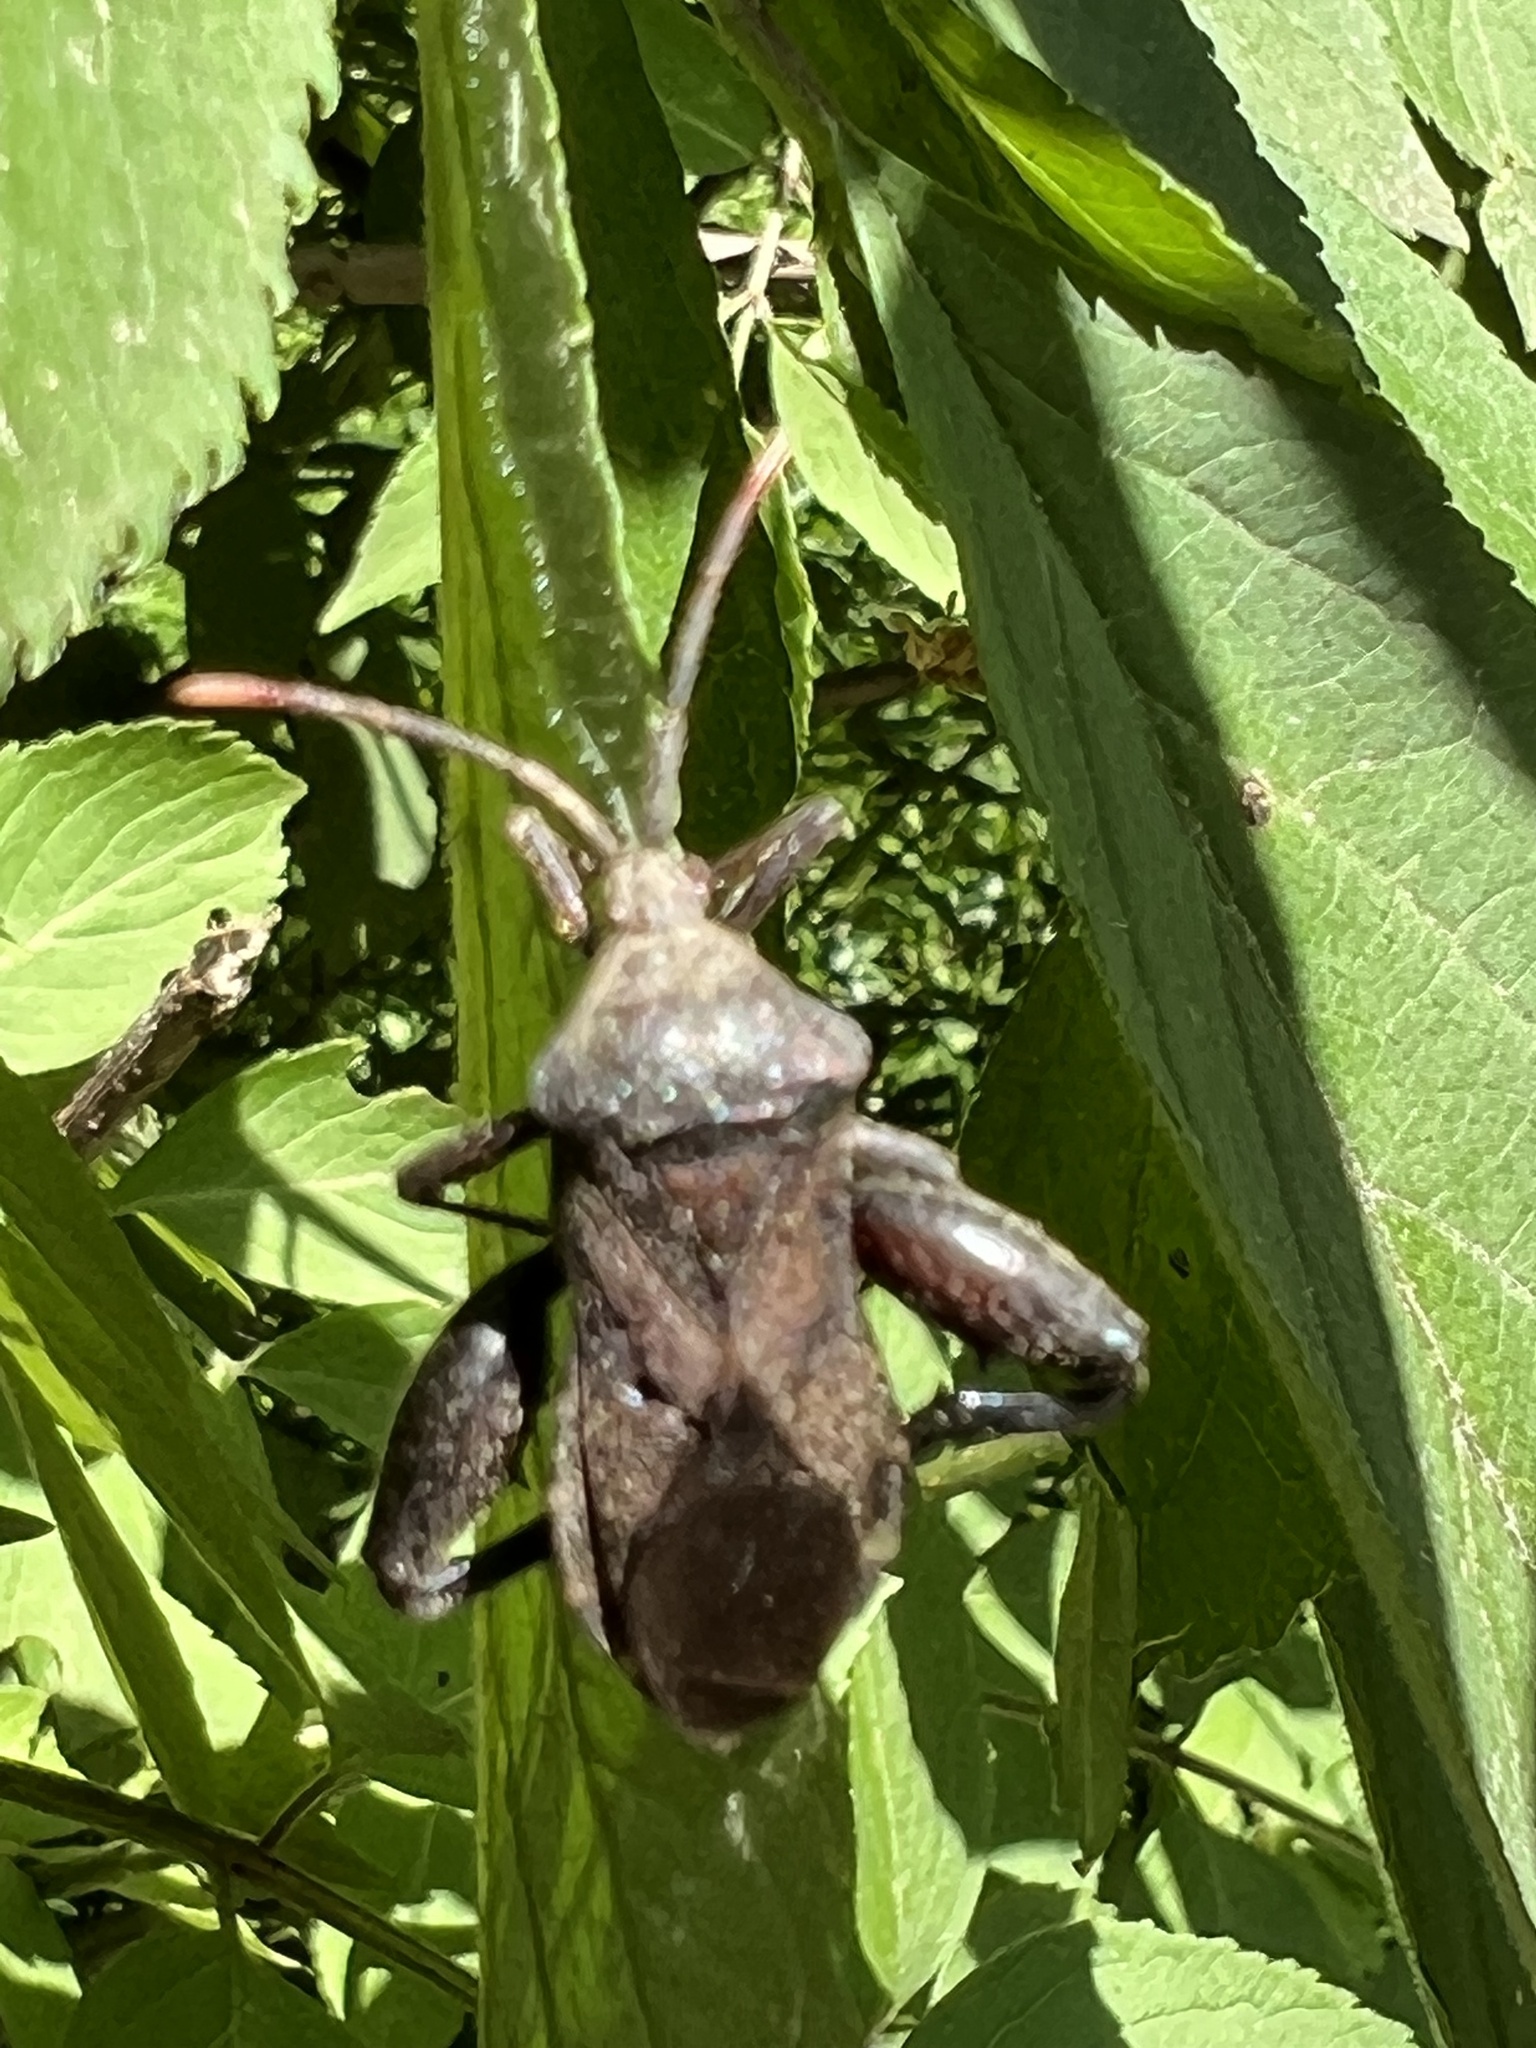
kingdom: Animalia
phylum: Arthropoda
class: Insecta
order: Hemiptera
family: Coreidae
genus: Piezogaster
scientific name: Piezogaster calcarator
